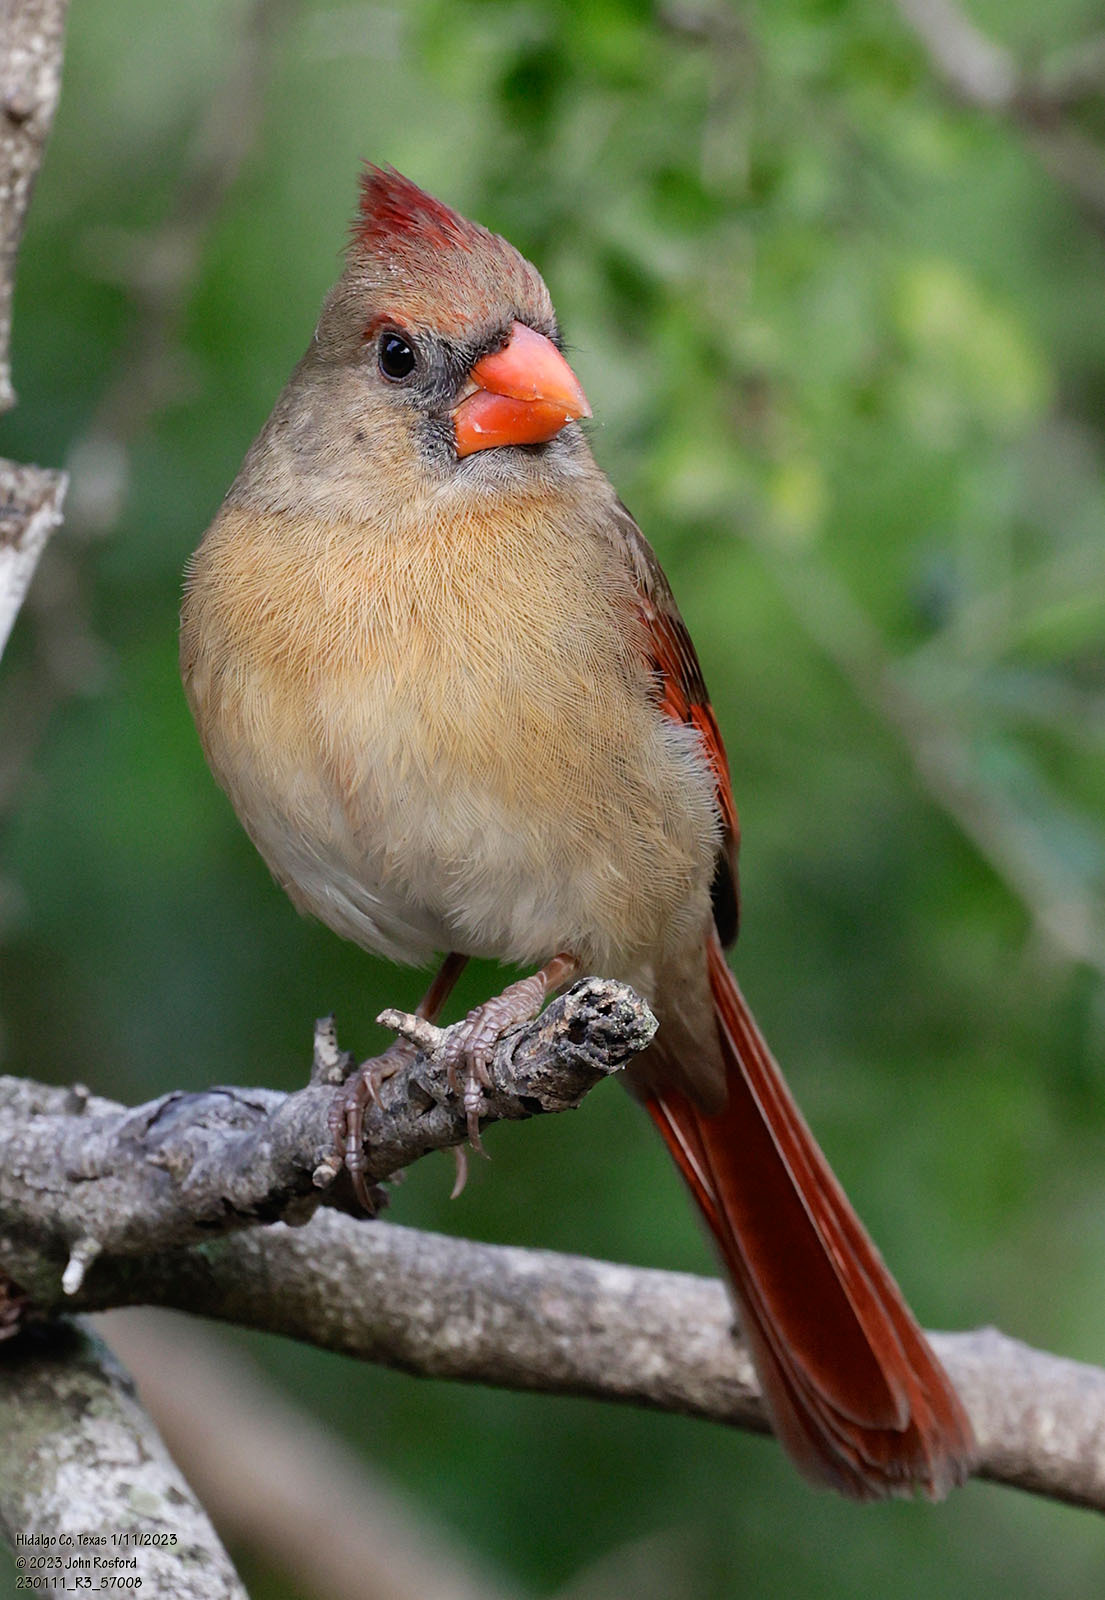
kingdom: Animalia
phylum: Chordata
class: Aves
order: Passeriformes
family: Cardinalidae
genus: Cardinalis
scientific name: Cardinalis cardinalis
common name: Northern cardinal
